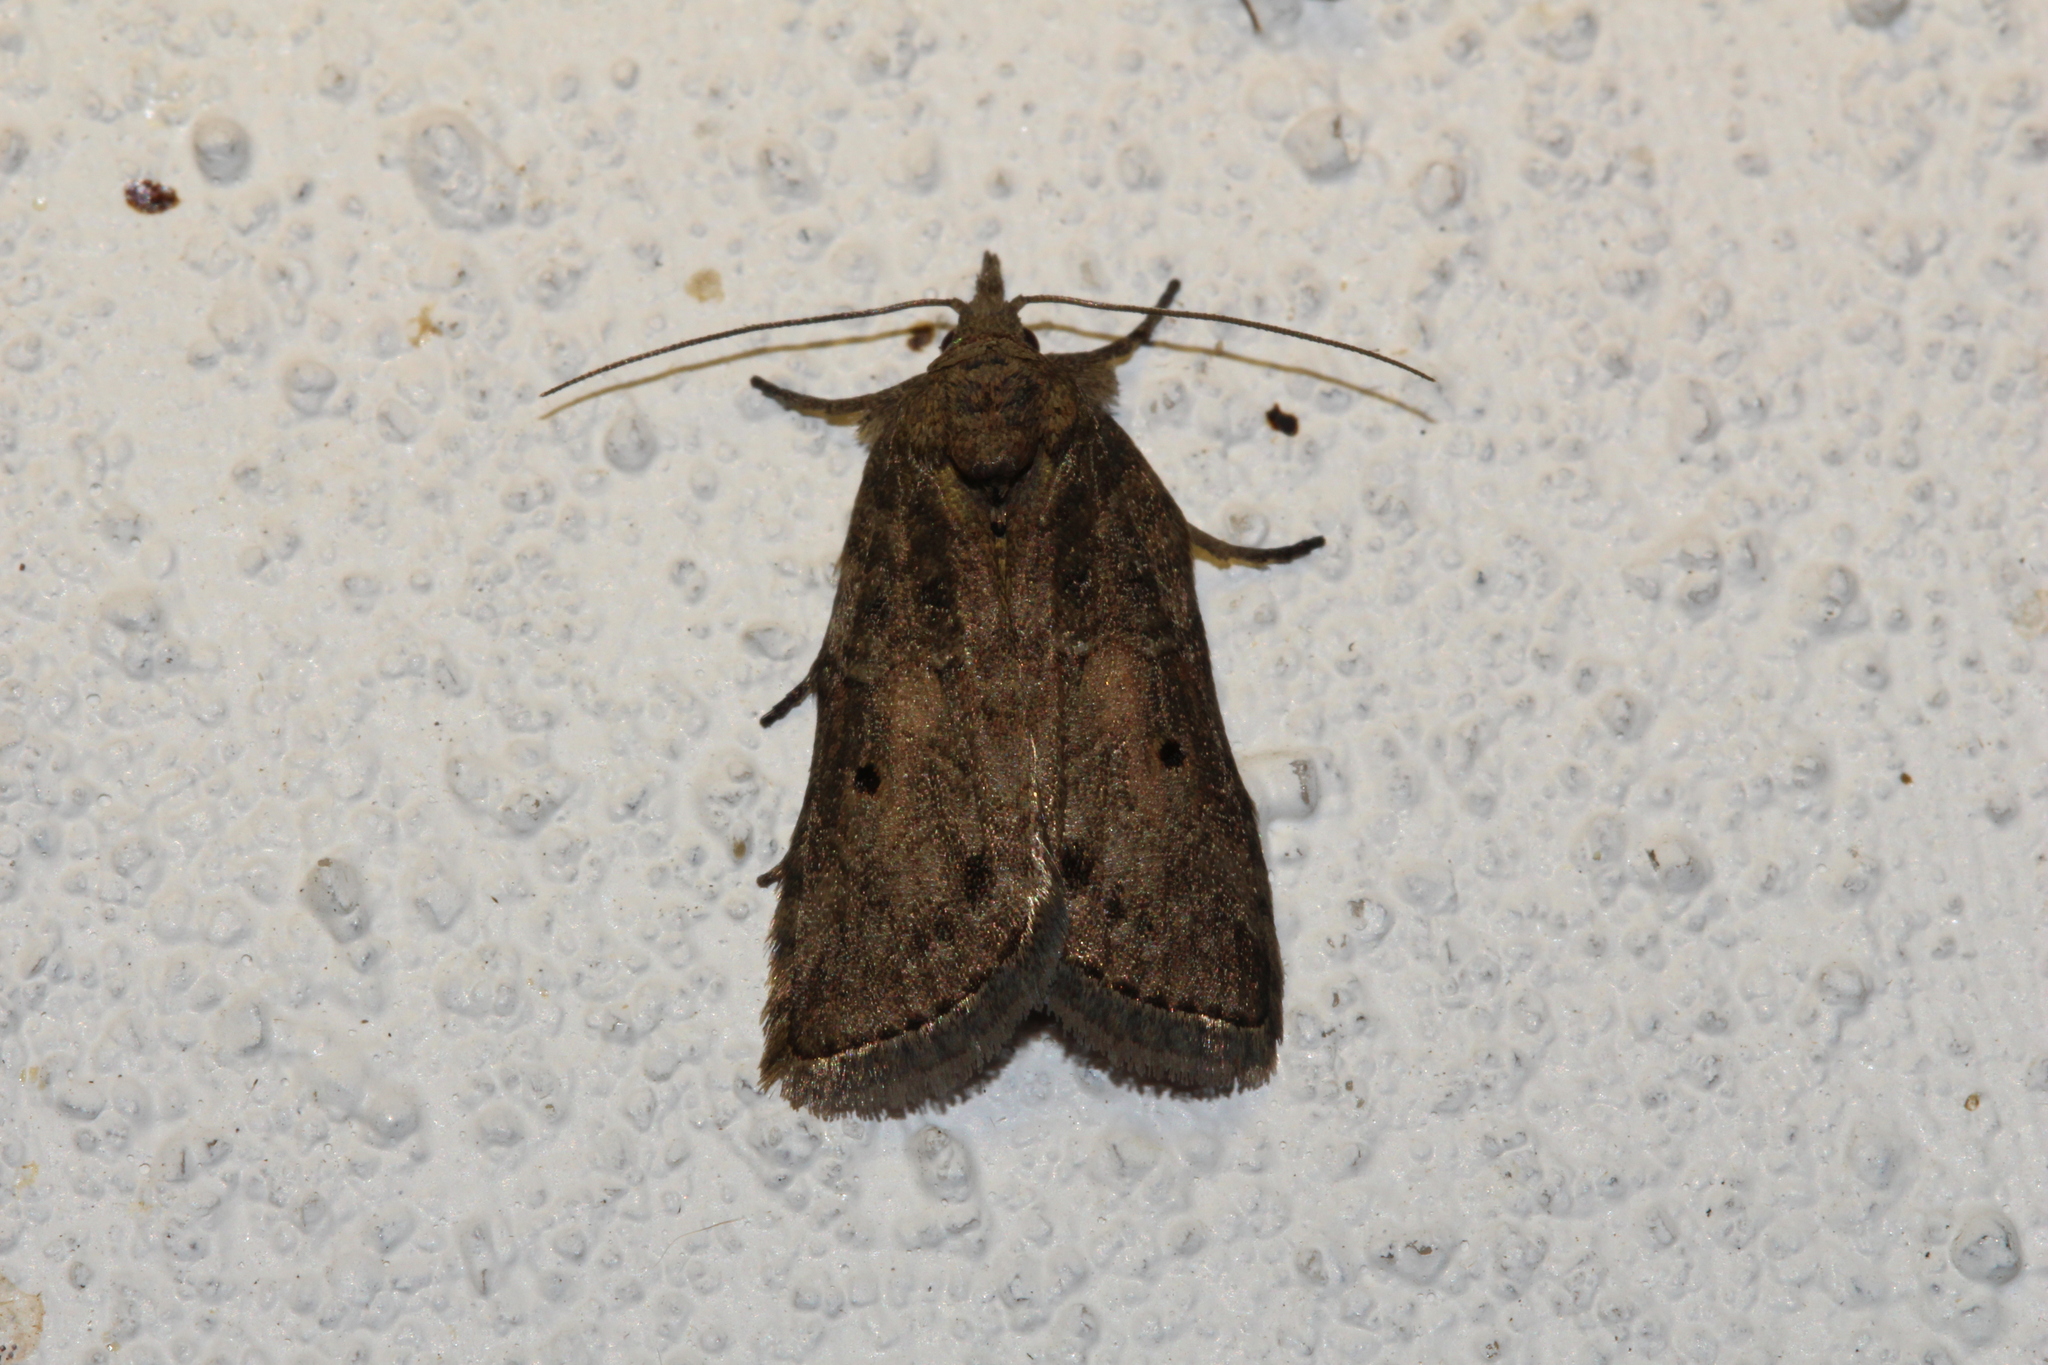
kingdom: Animalia
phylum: Arthropoda
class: Insecta
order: Lepidoptera
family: Nolidae
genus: Nycteola
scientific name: Nycteola revayana
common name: Oak nycteoline
